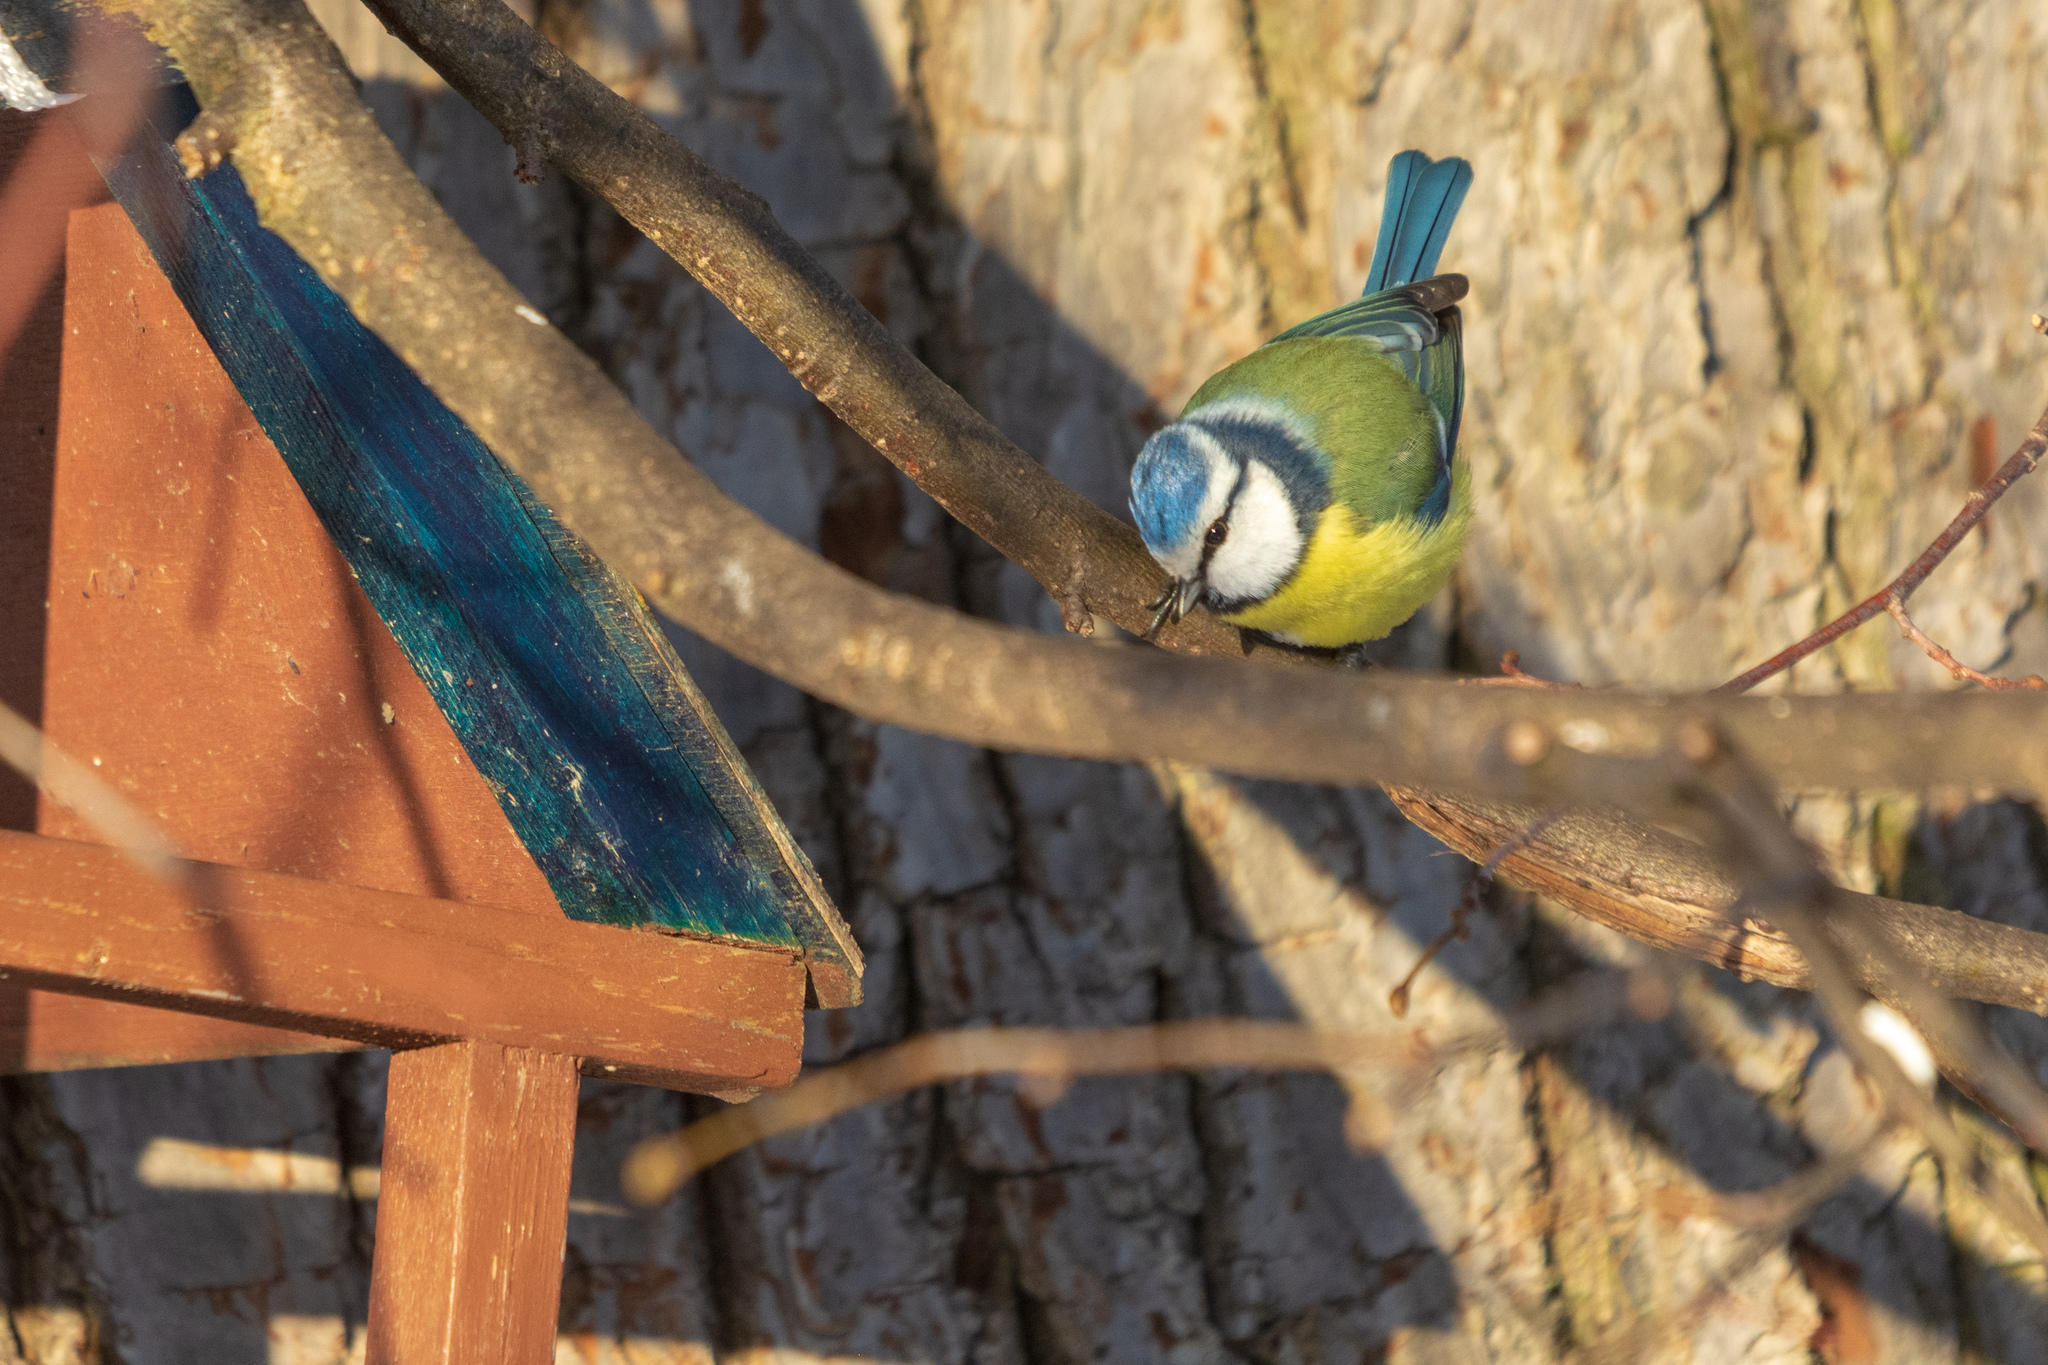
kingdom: Animalia
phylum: Chordata
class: Aves
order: Passeriformes
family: Paridae
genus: Cyanistes
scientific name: Cyanistes caeruleus
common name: Eurasian blue tit
